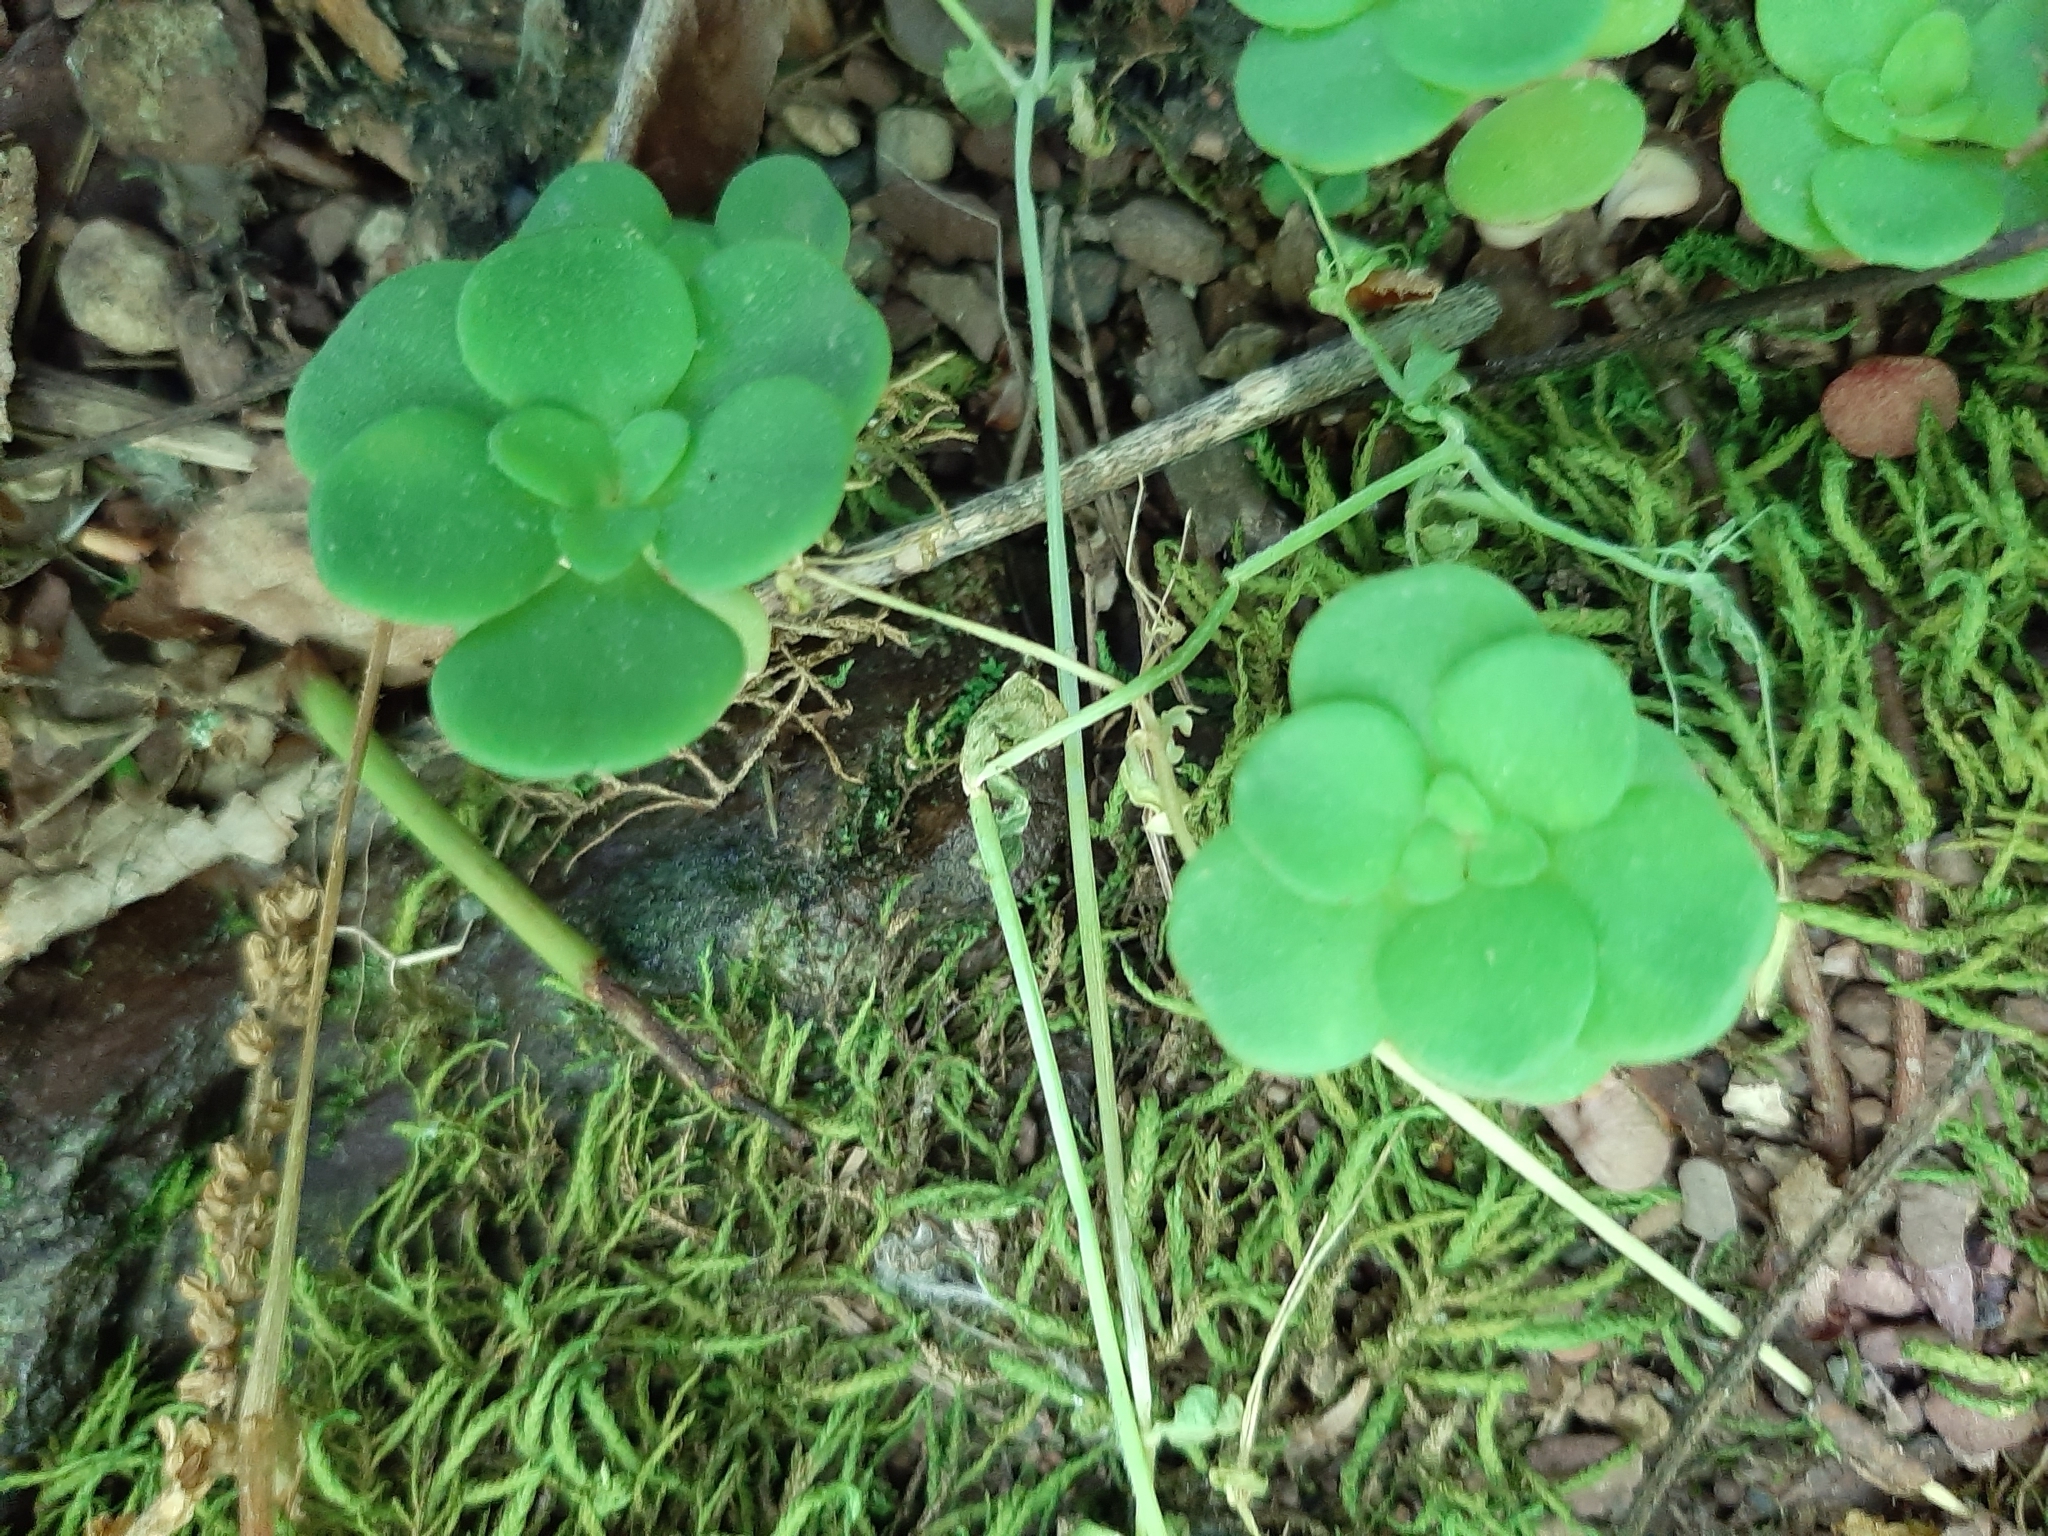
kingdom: Plantae
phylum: Tracheophyta
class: Magnoliopsida
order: Saxifragales
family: Crassulaceae
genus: Sedum
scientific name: Sedum ternatum
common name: Wild stonecrop
